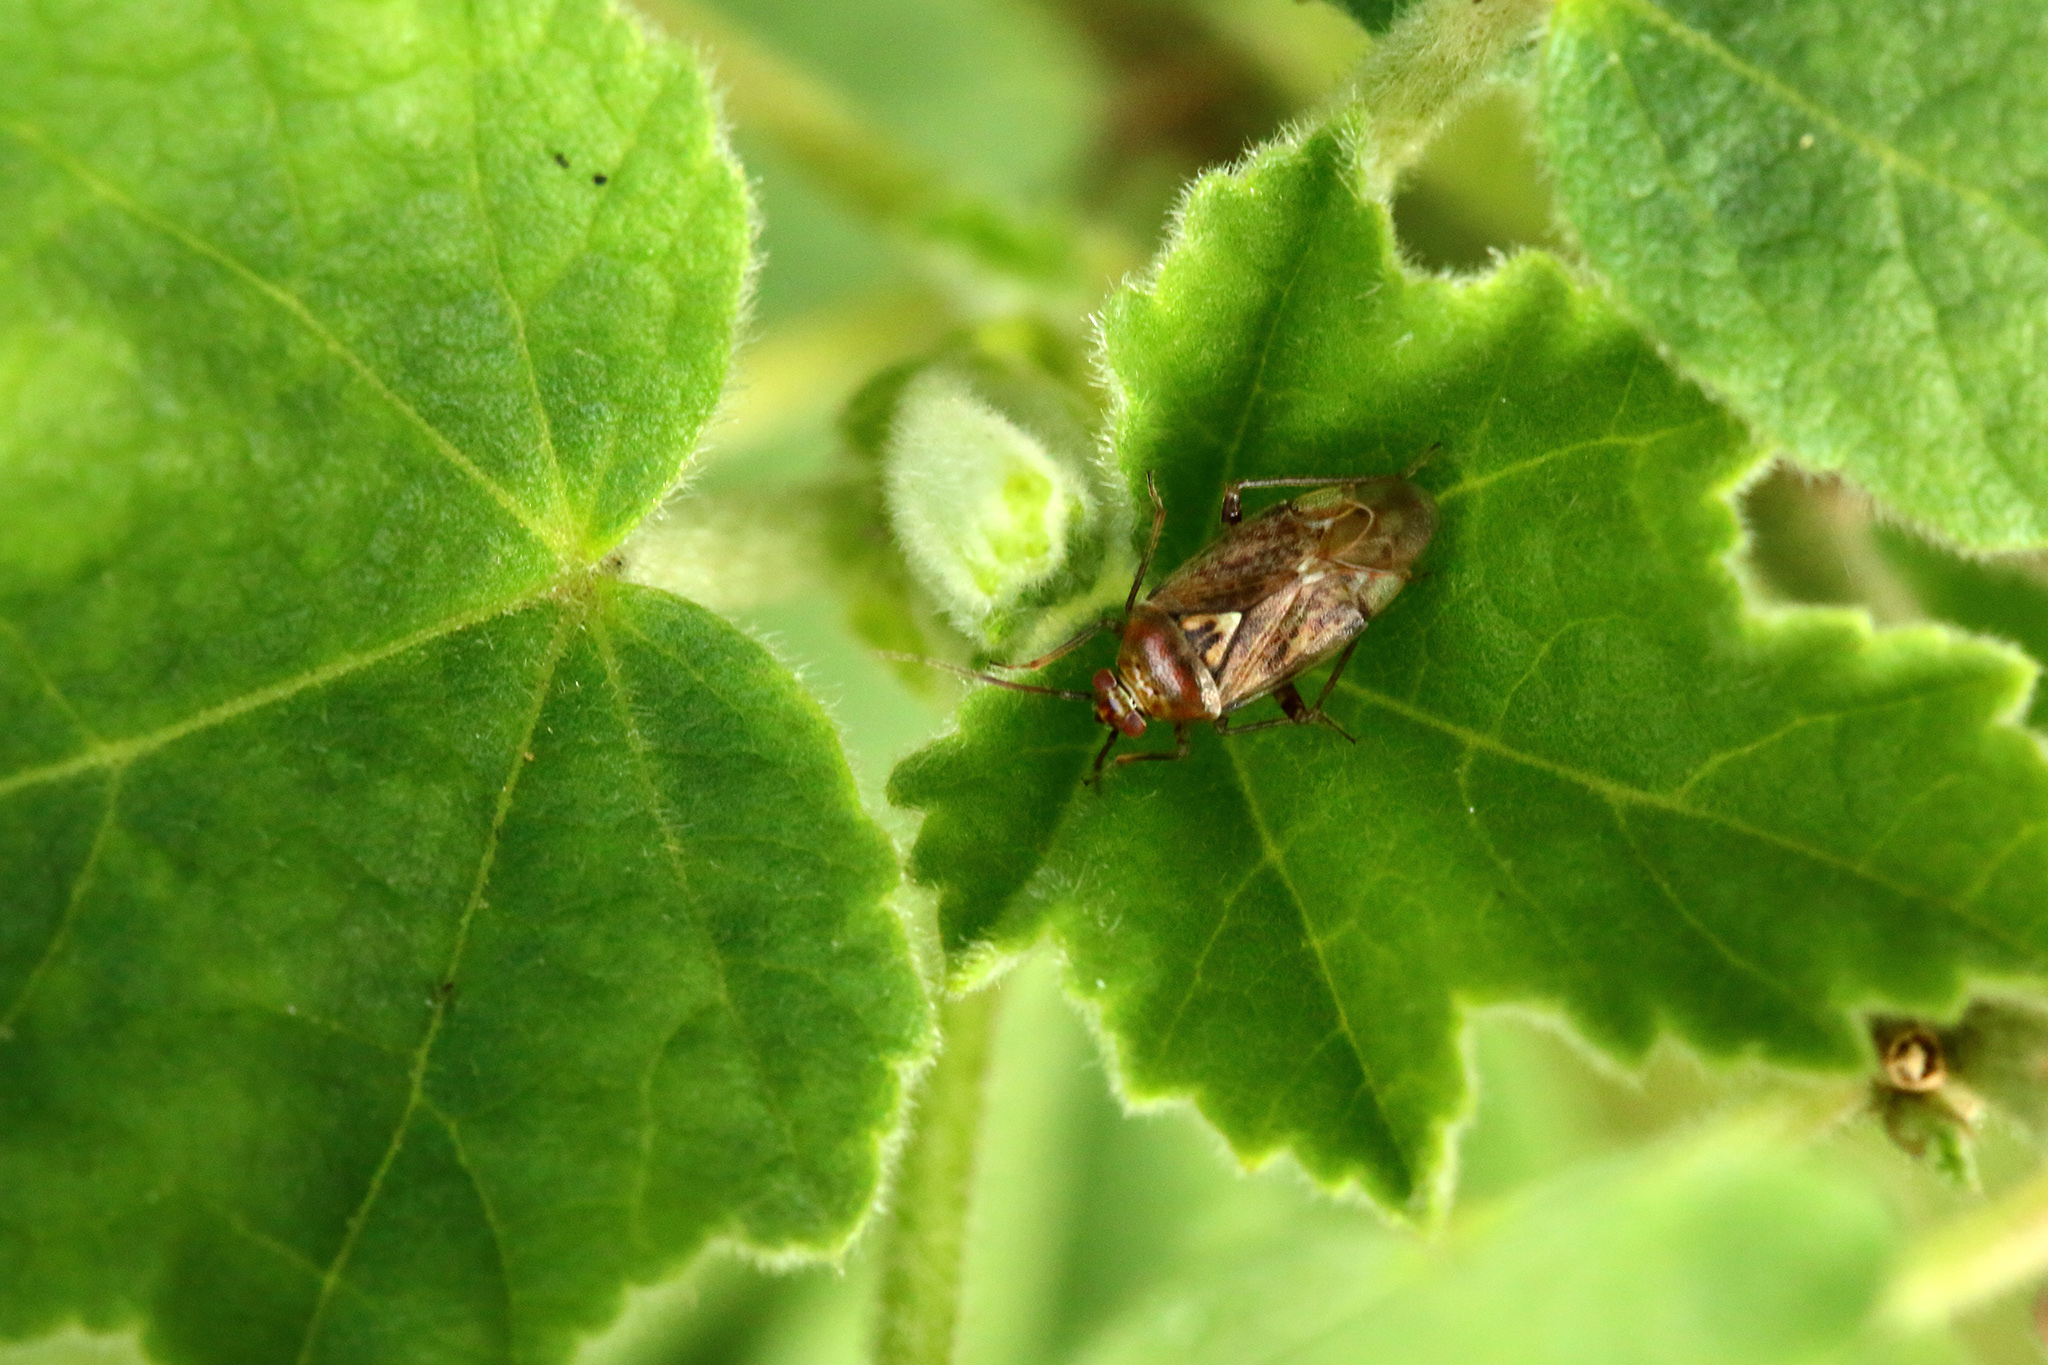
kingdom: Animalia
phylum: Arthropoda
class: Insecta
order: Hemiptera
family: Miridae
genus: Lygus
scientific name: Lygus rugulipennis
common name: European tarnished plant bug
